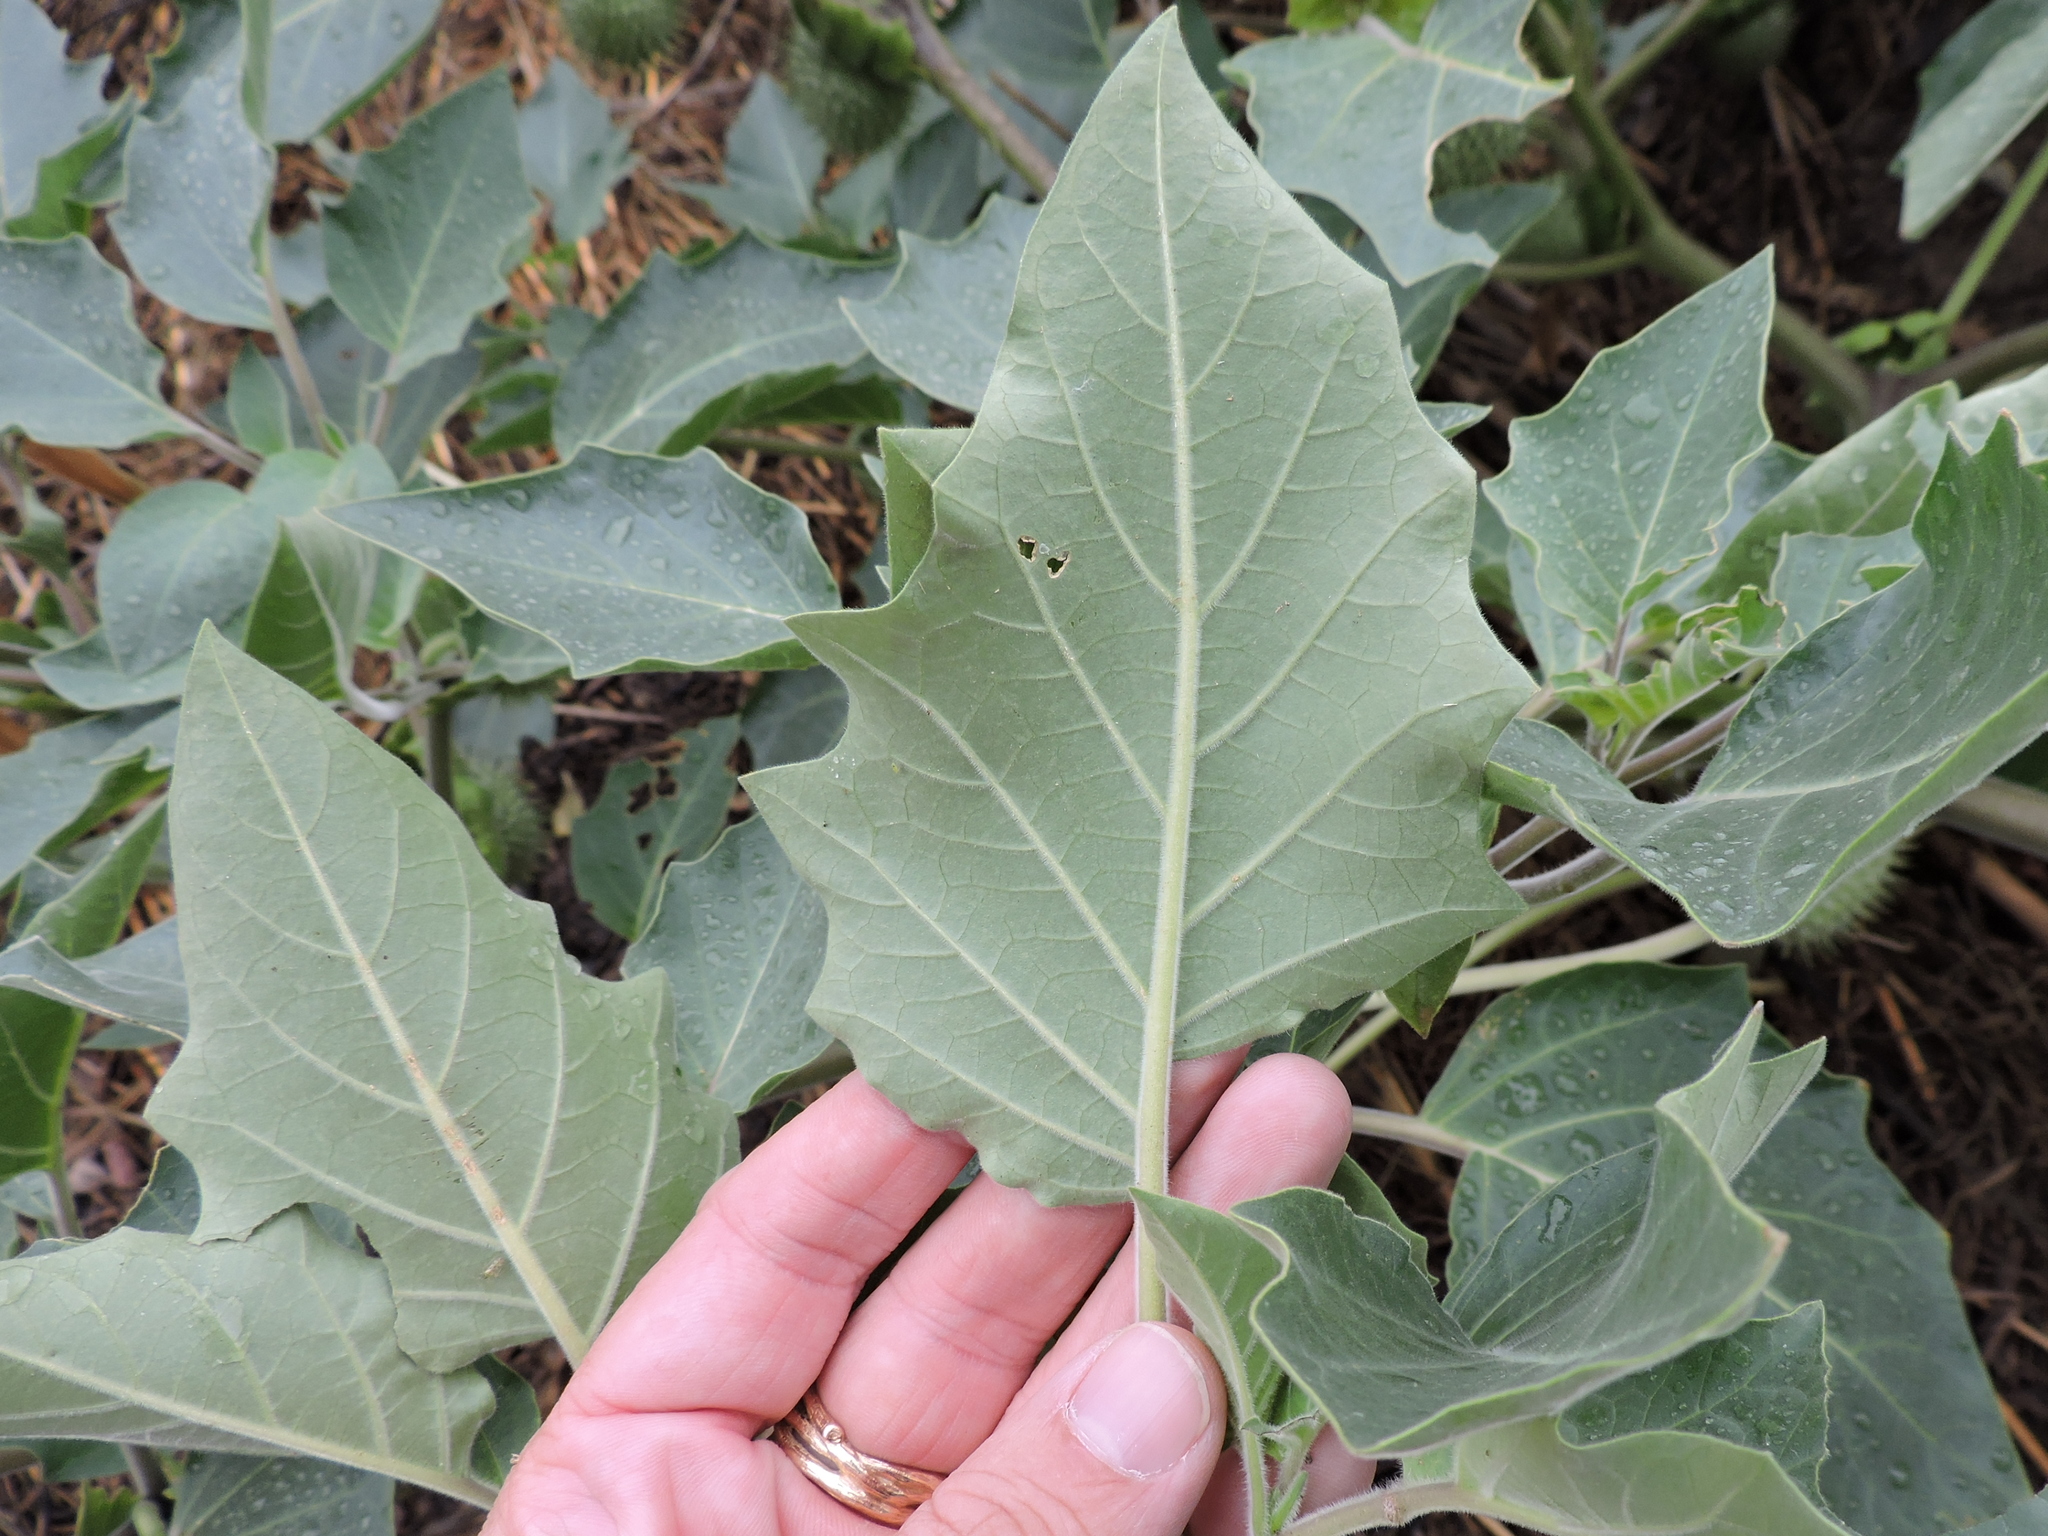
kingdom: Plantae
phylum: Tracheophyta
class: Magnoliopsida
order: Solanales
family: Solanaceae
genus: Datura
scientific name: Datura wrightii
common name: Sacred thorn-apple
